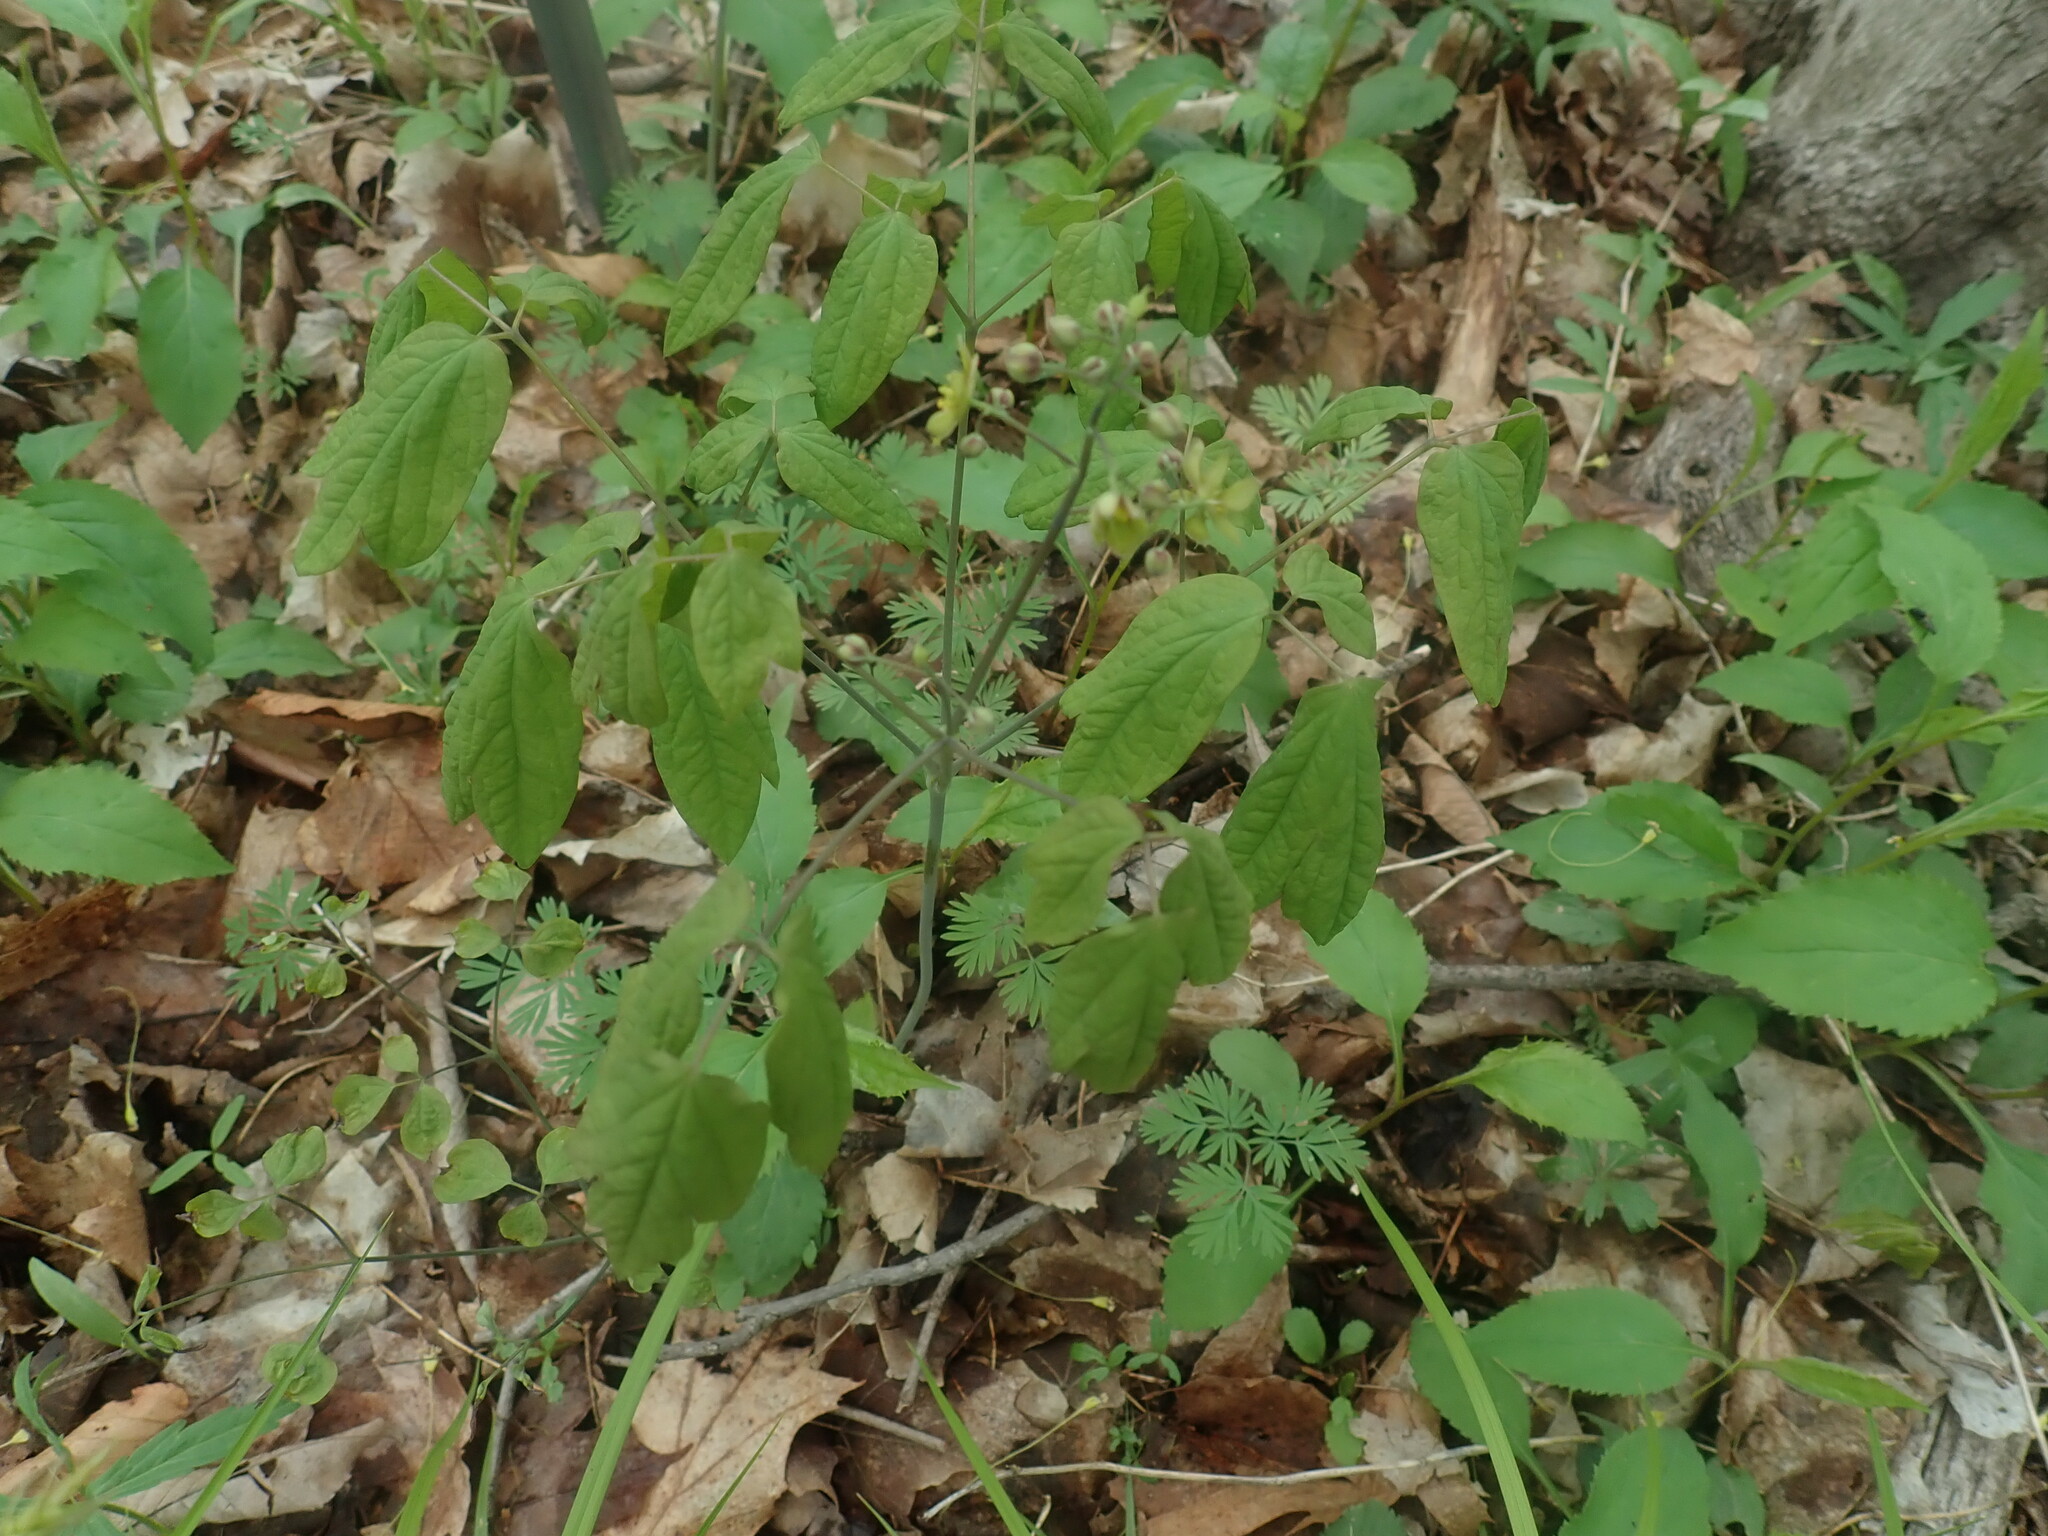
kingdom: Plantae
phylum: Tracheophyta
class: Magnoliopsida
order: Ranunculales
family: Berberidaceae
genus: Caulophyllum
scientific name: Caulophyllum thalictroides
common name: Blue cohosh
